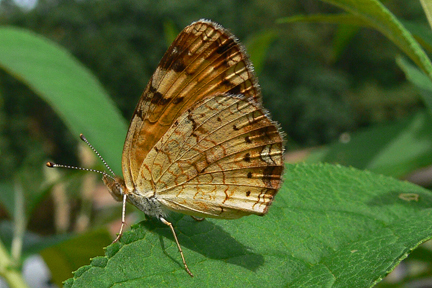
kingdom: Animalia
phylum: Arthropoda
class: Insecta
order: Lepidoptera
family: Nymphalidae
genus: Phyciodes
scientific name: Phyciodes tharos
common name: Pearl crescent
